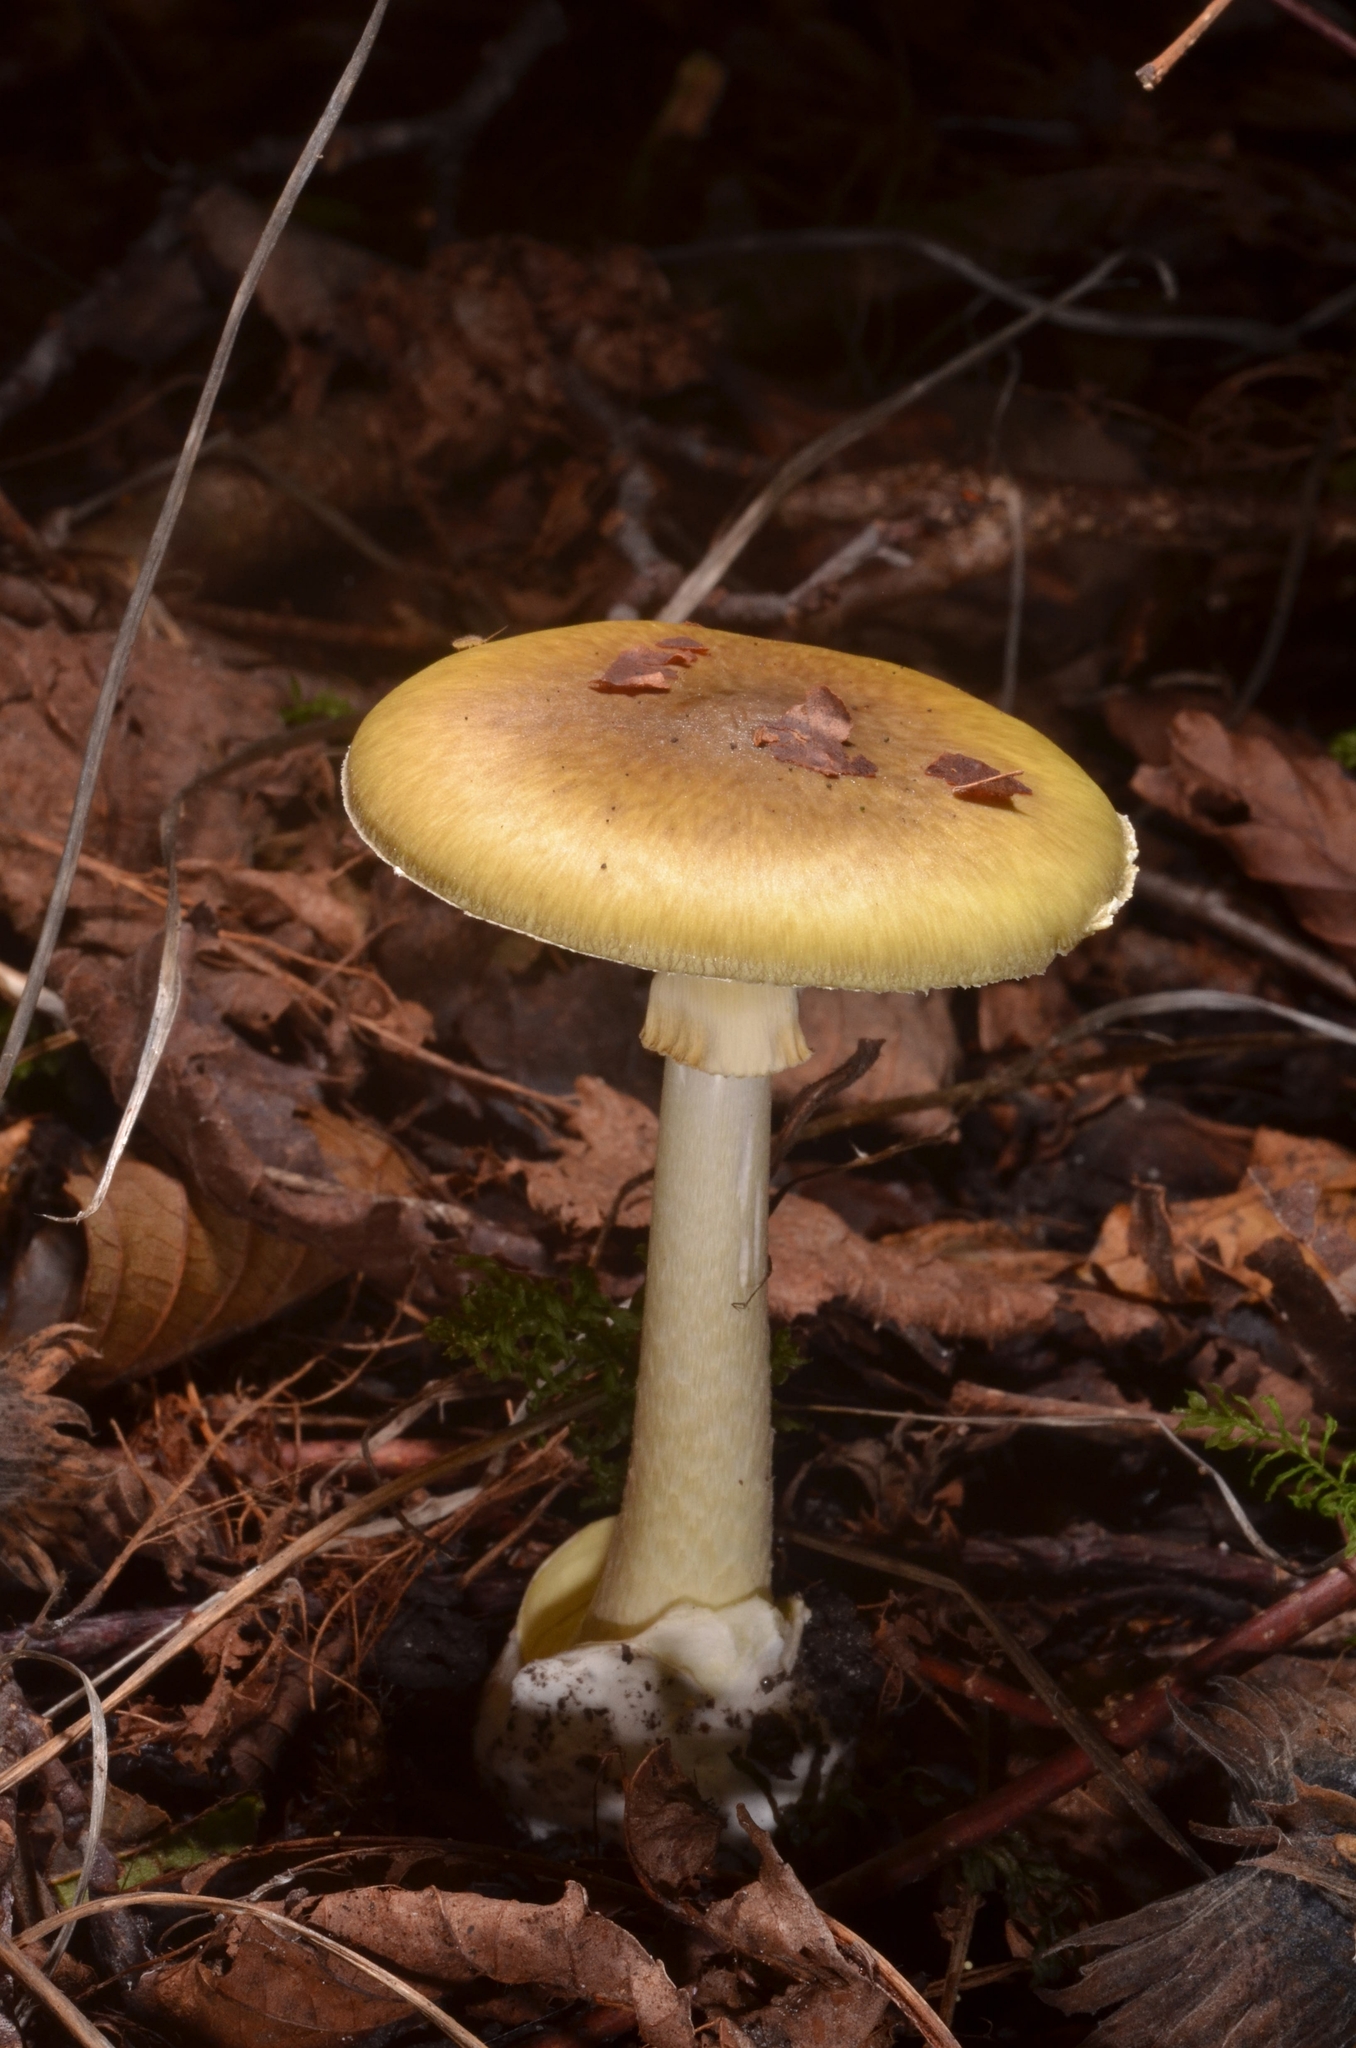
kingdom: Fungi
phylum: Basidiomycota
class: Agaricomycetes
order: Agaricales
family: Amanitaceae
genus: Amanita
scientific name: Amanita phalloides
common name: Death cap
